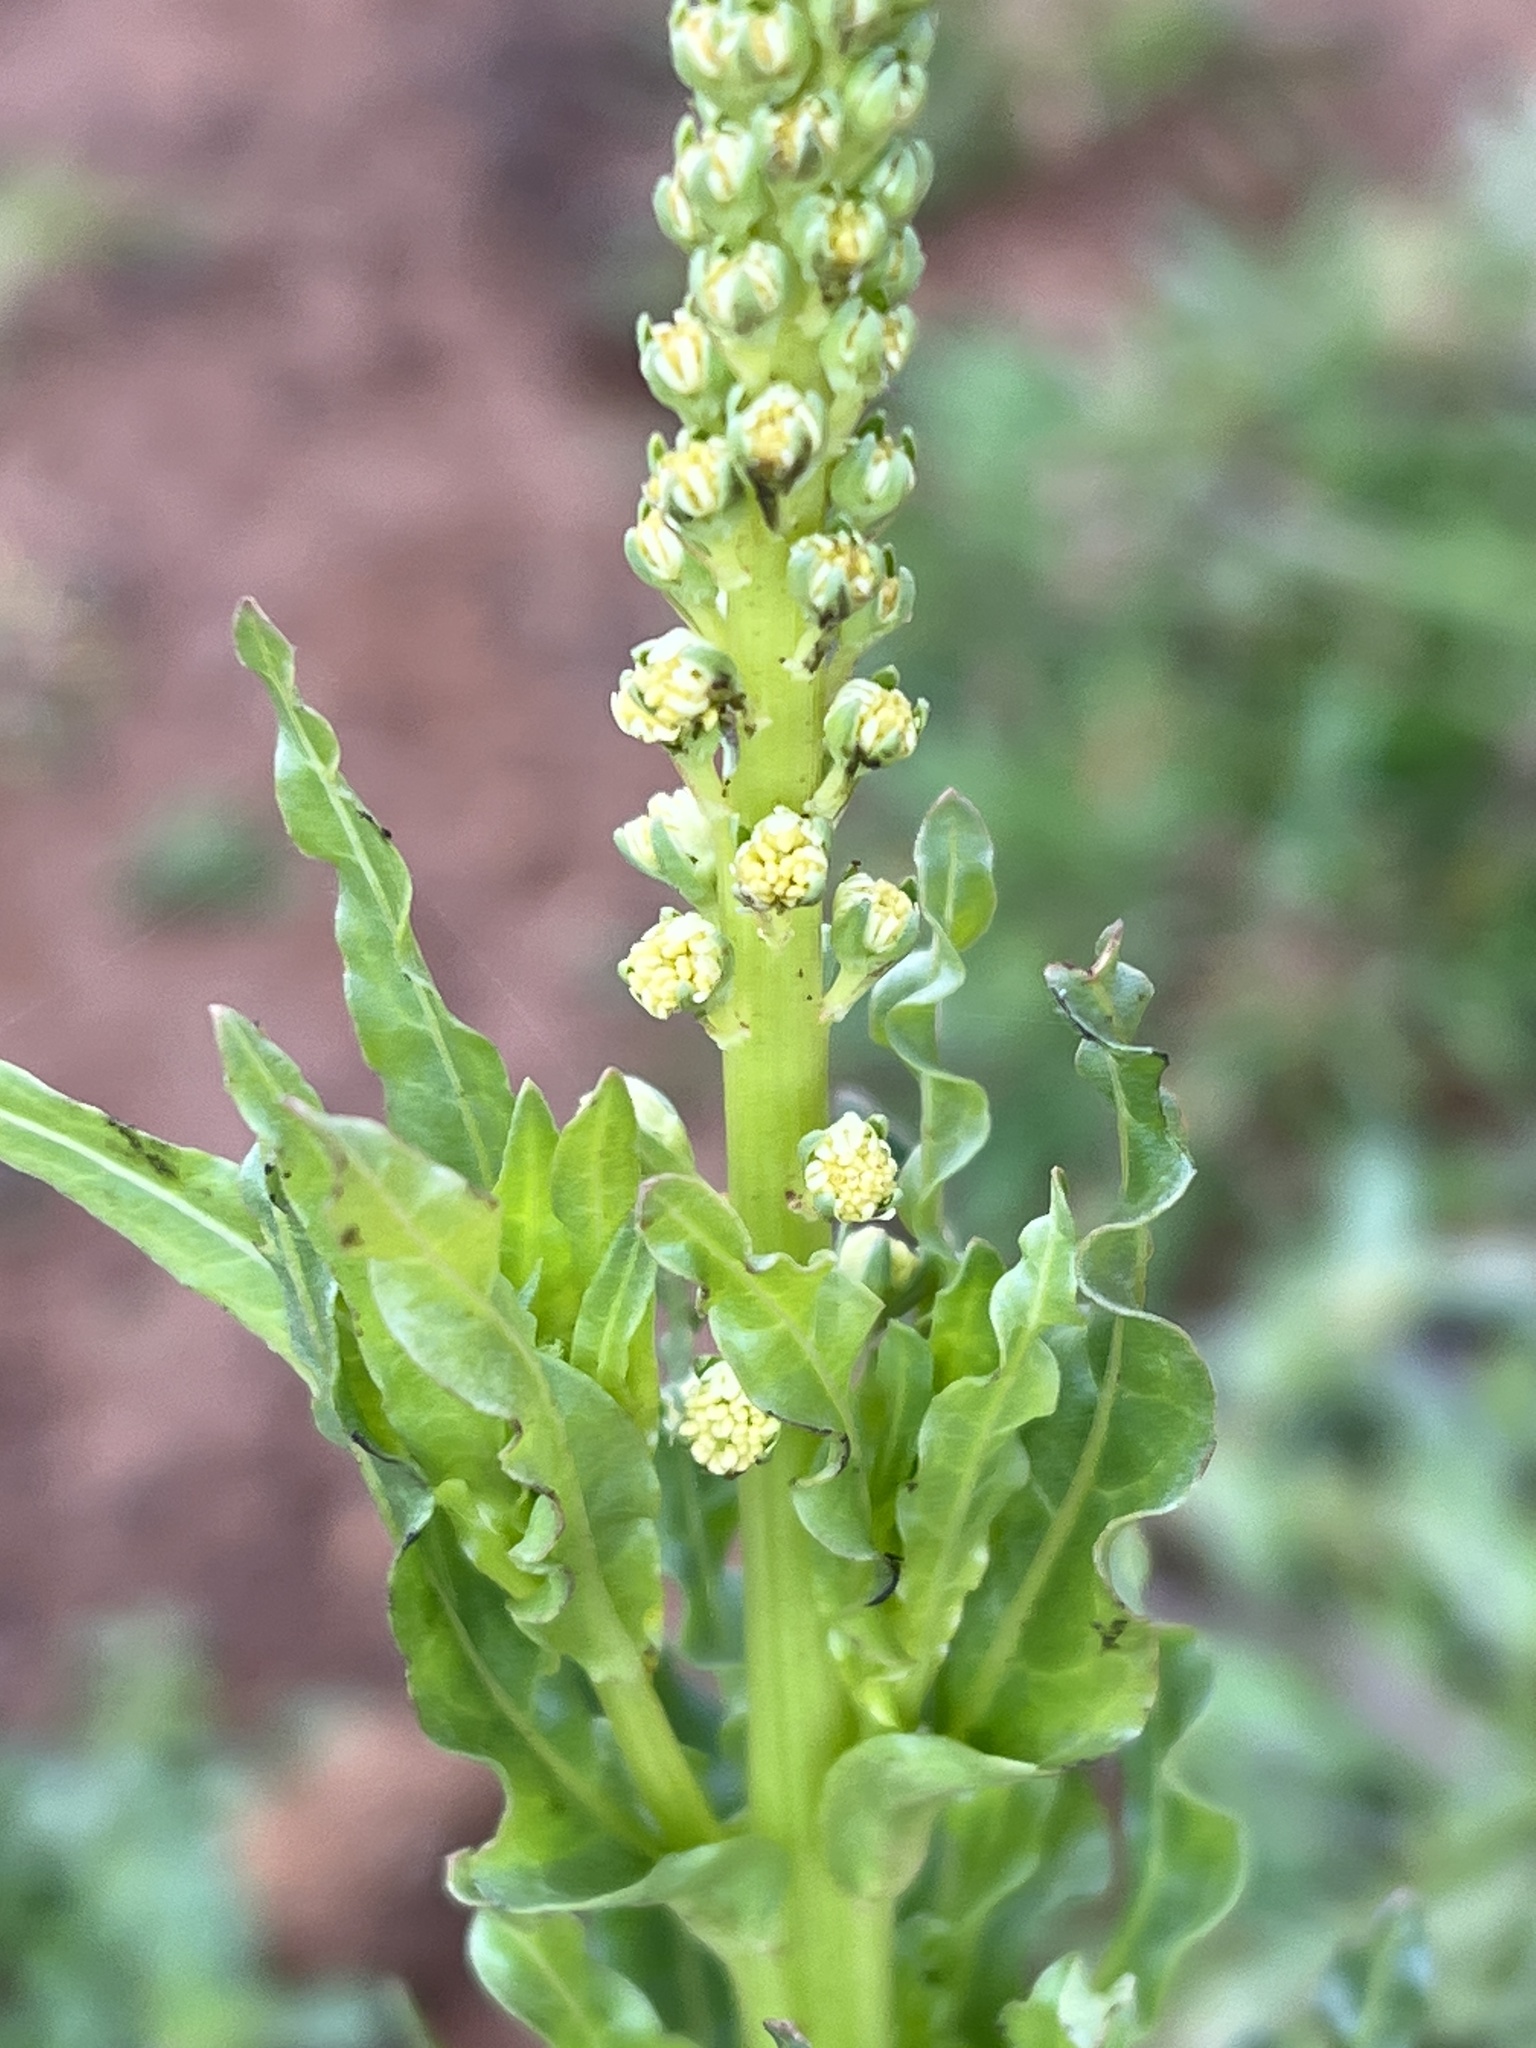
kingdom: Plantae
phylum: Tracheophyta
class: Magnoliopsida
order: Brassicales
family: Resedaceae
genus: Reseda
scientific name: Reseda luteola
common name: Weld
